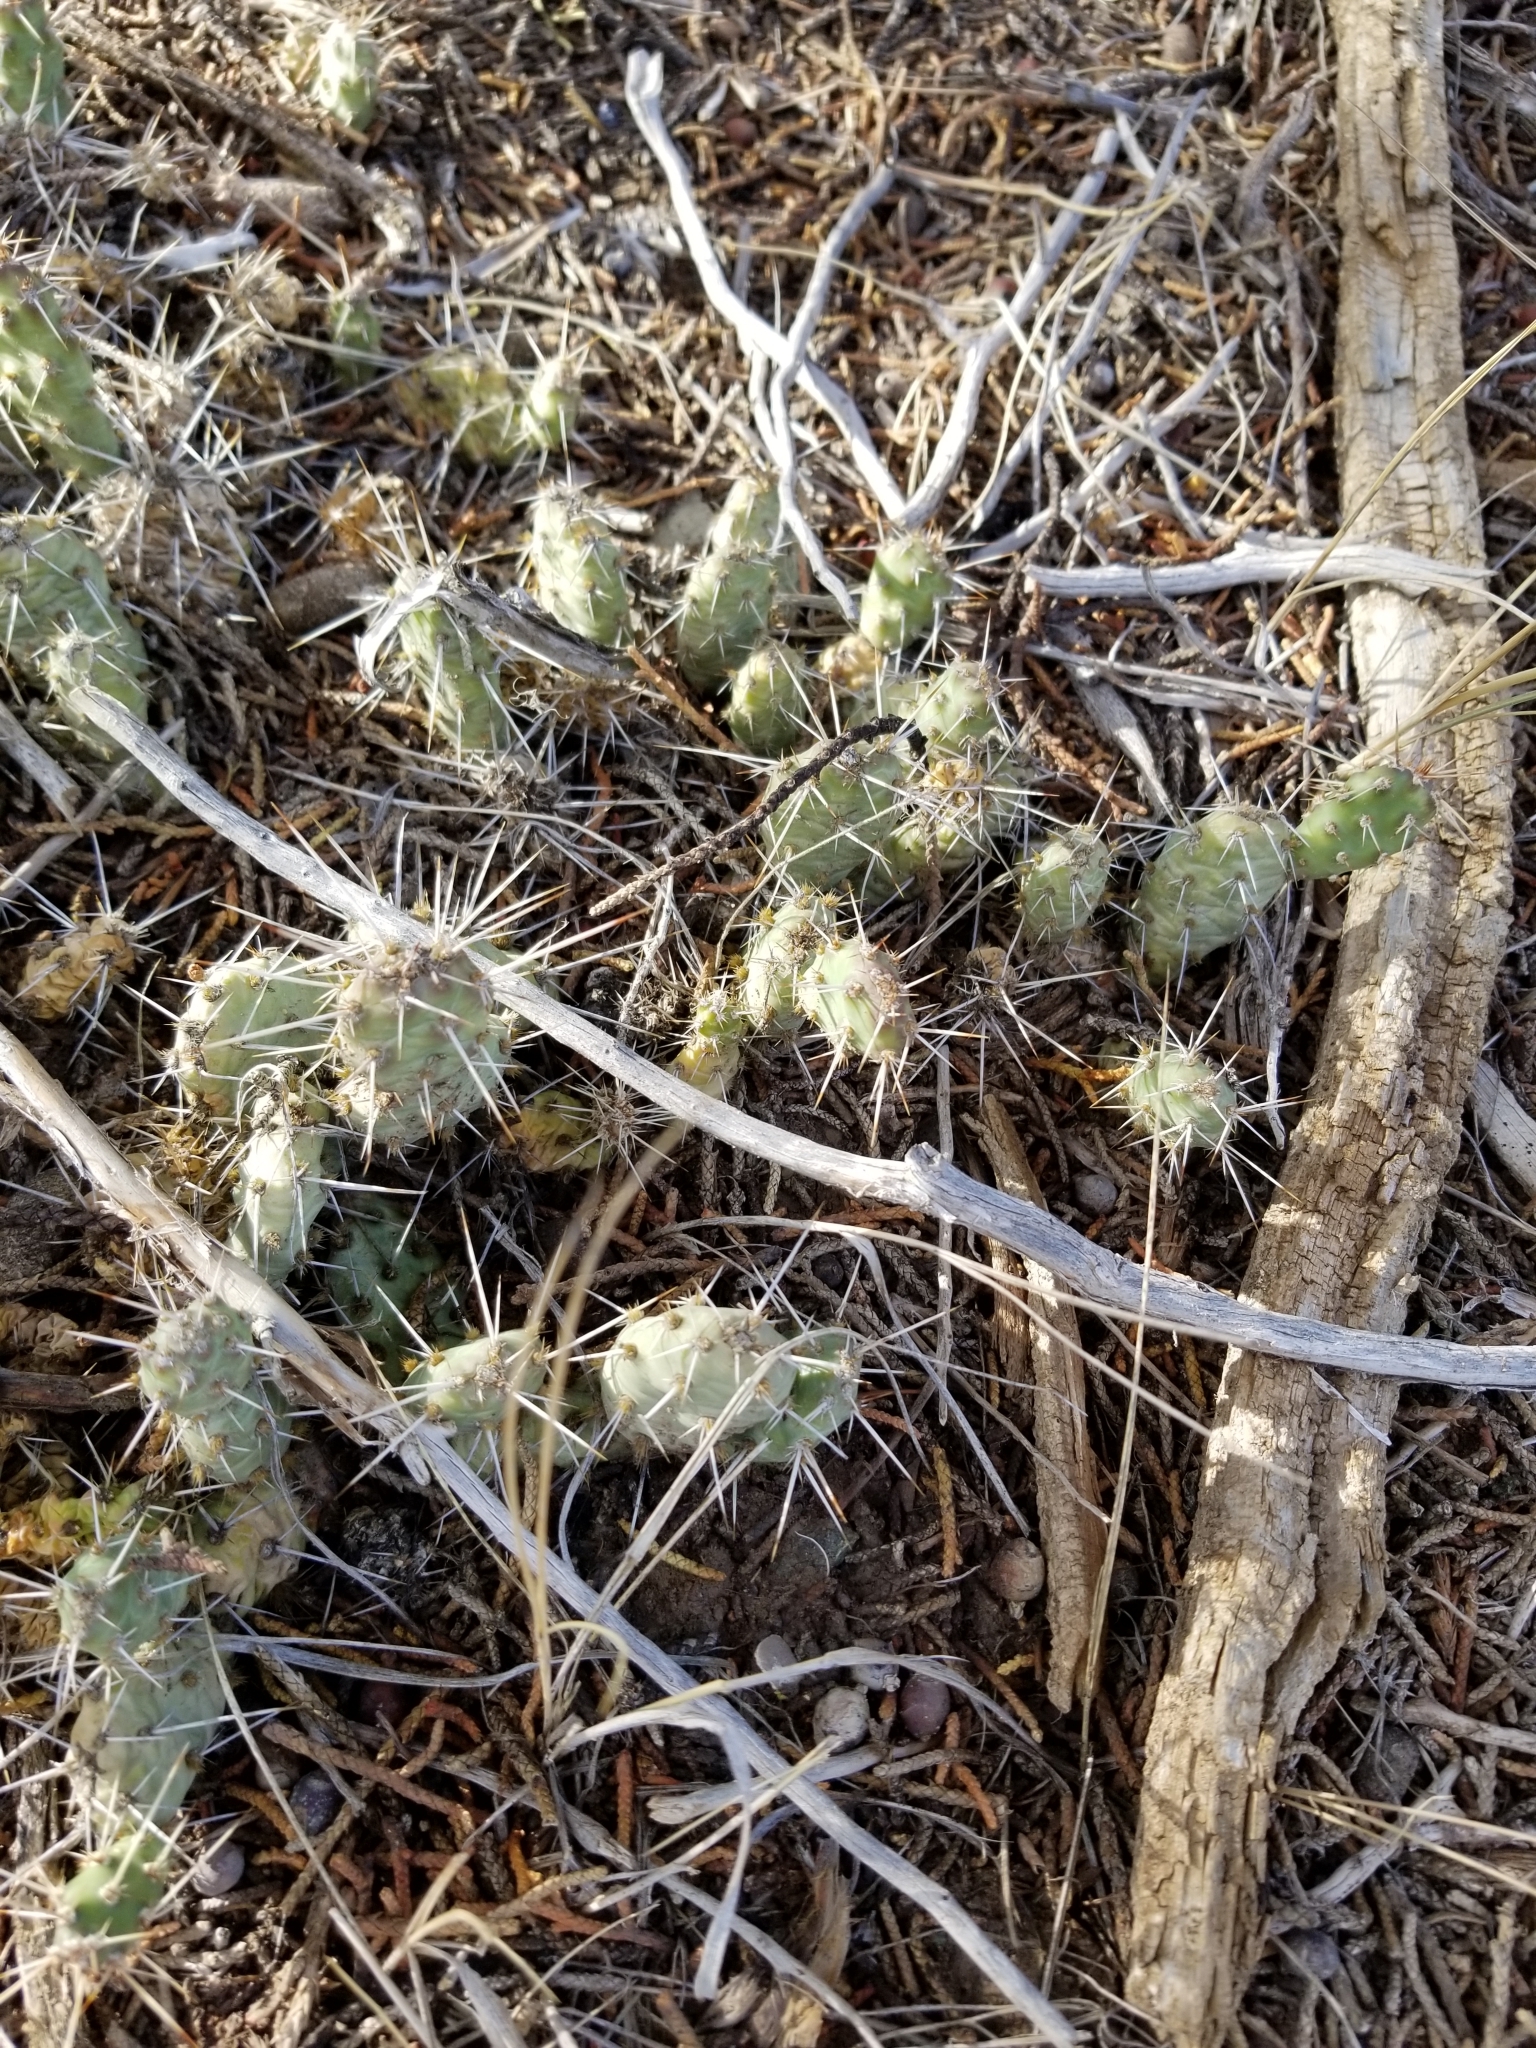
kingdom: Plantae
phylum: Tracheophyta
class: Magnoliopsida
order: Caryophyllales
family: Cactaceae
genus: Opuntia
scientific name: Opuntia fragilis
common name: Brittle cactus
